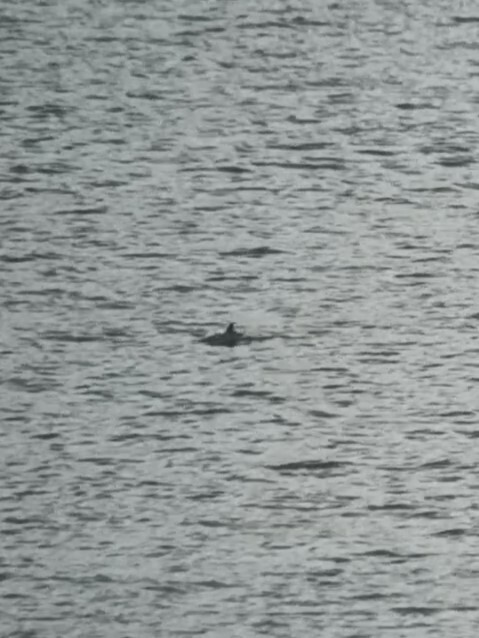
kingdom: Animalia
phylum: Chordata
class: Mammalia
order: Cetacea
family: Phocoenidae
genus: Phocoena
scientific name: Phocoena phocoena
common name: Harbor porpoise
